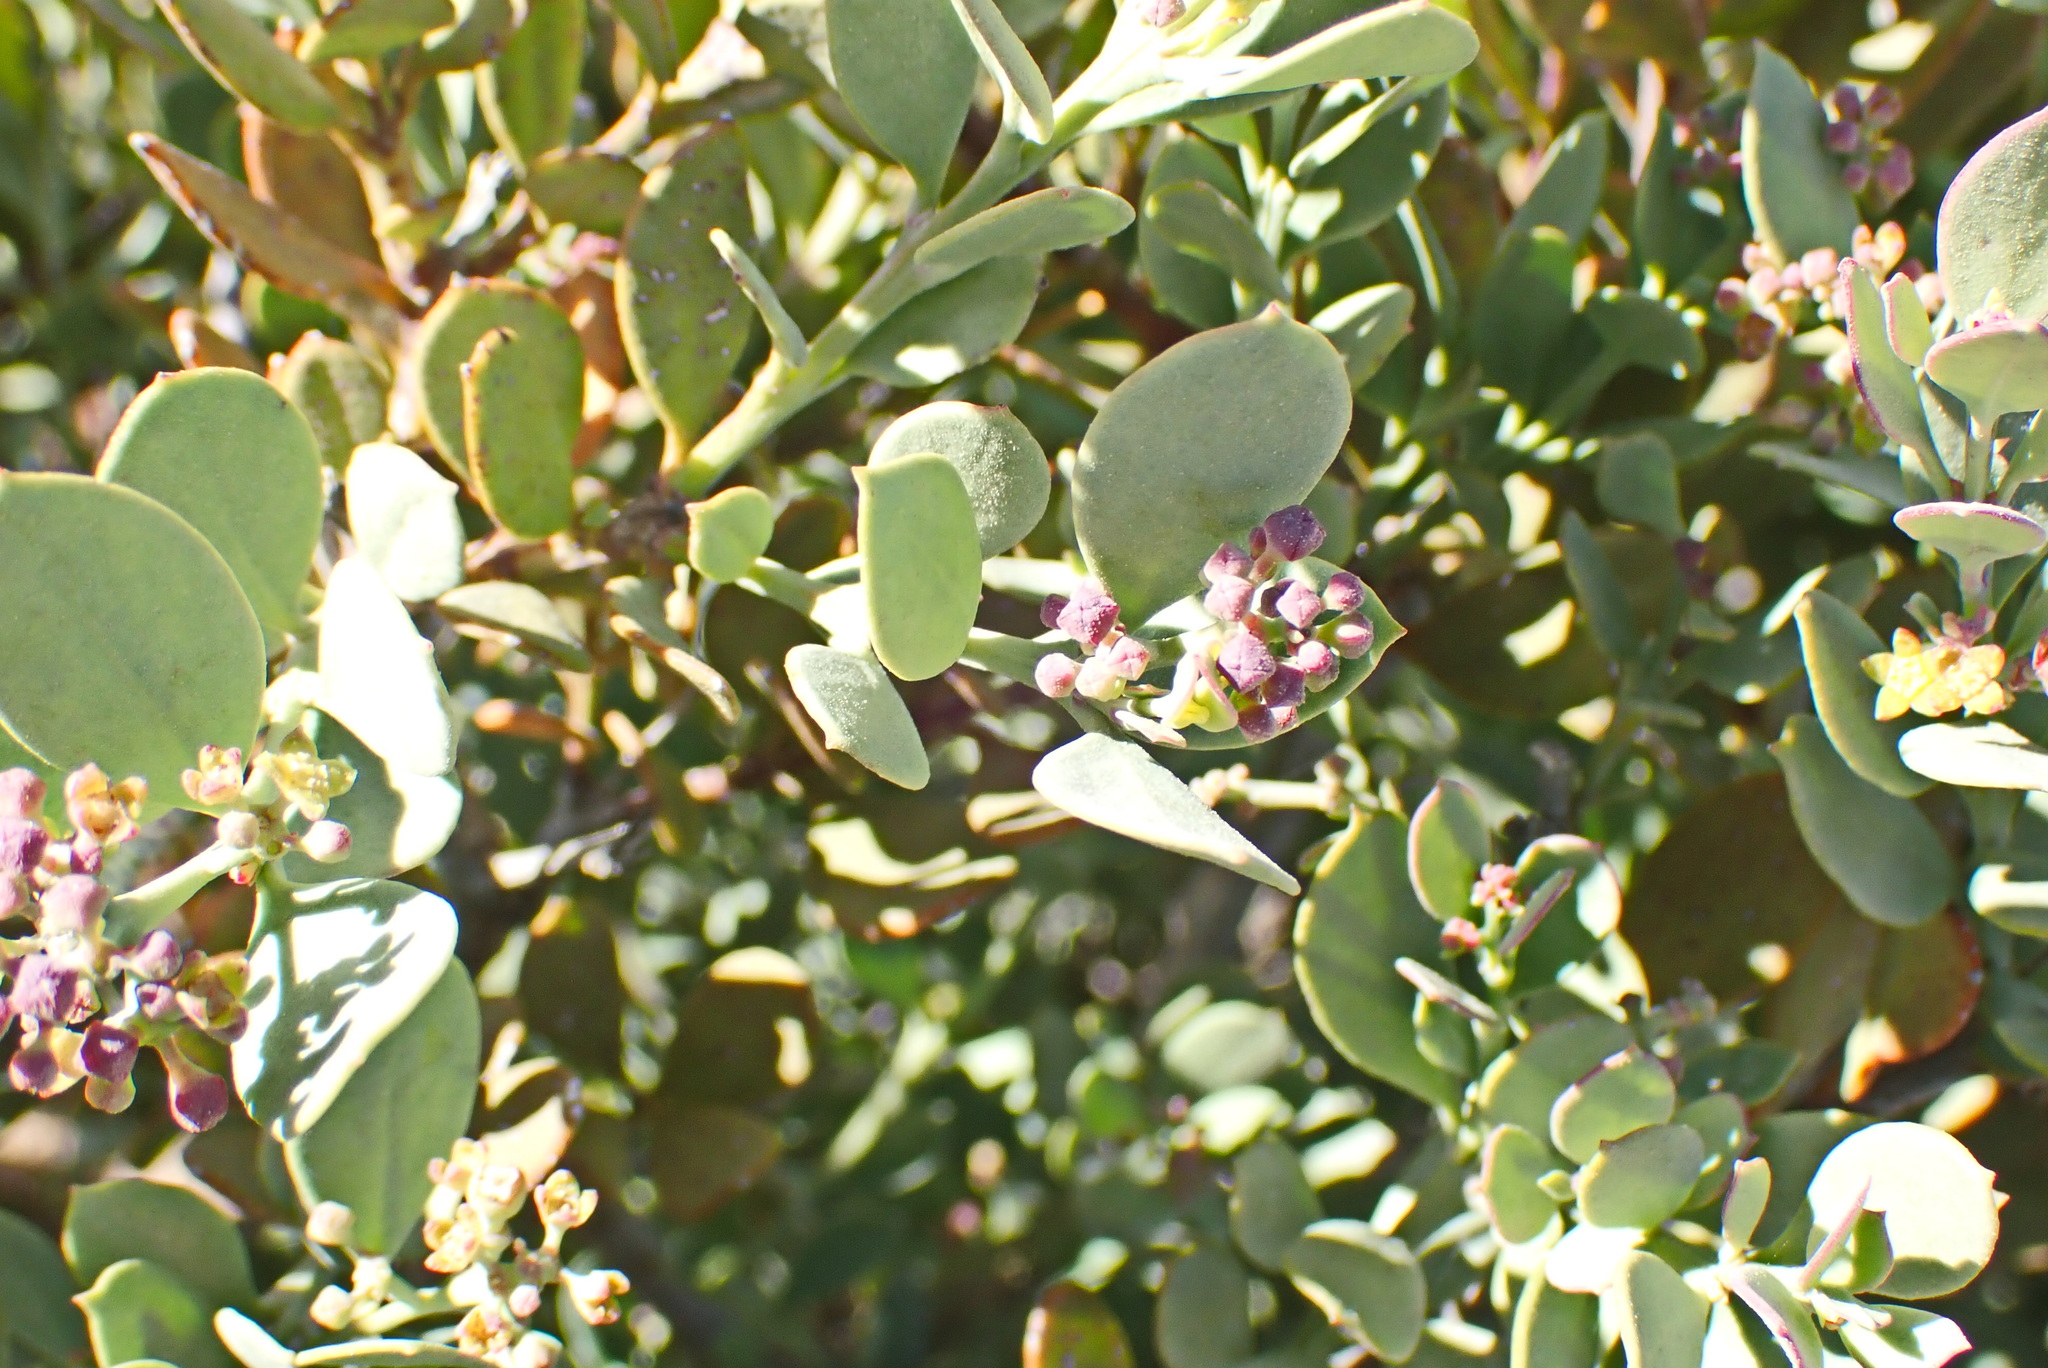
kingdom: Plantae
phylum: Tracheophyta
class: Magnoliopsida
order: Santalales
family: Santalaceae
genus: Osyris
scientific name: Osyris compressa
